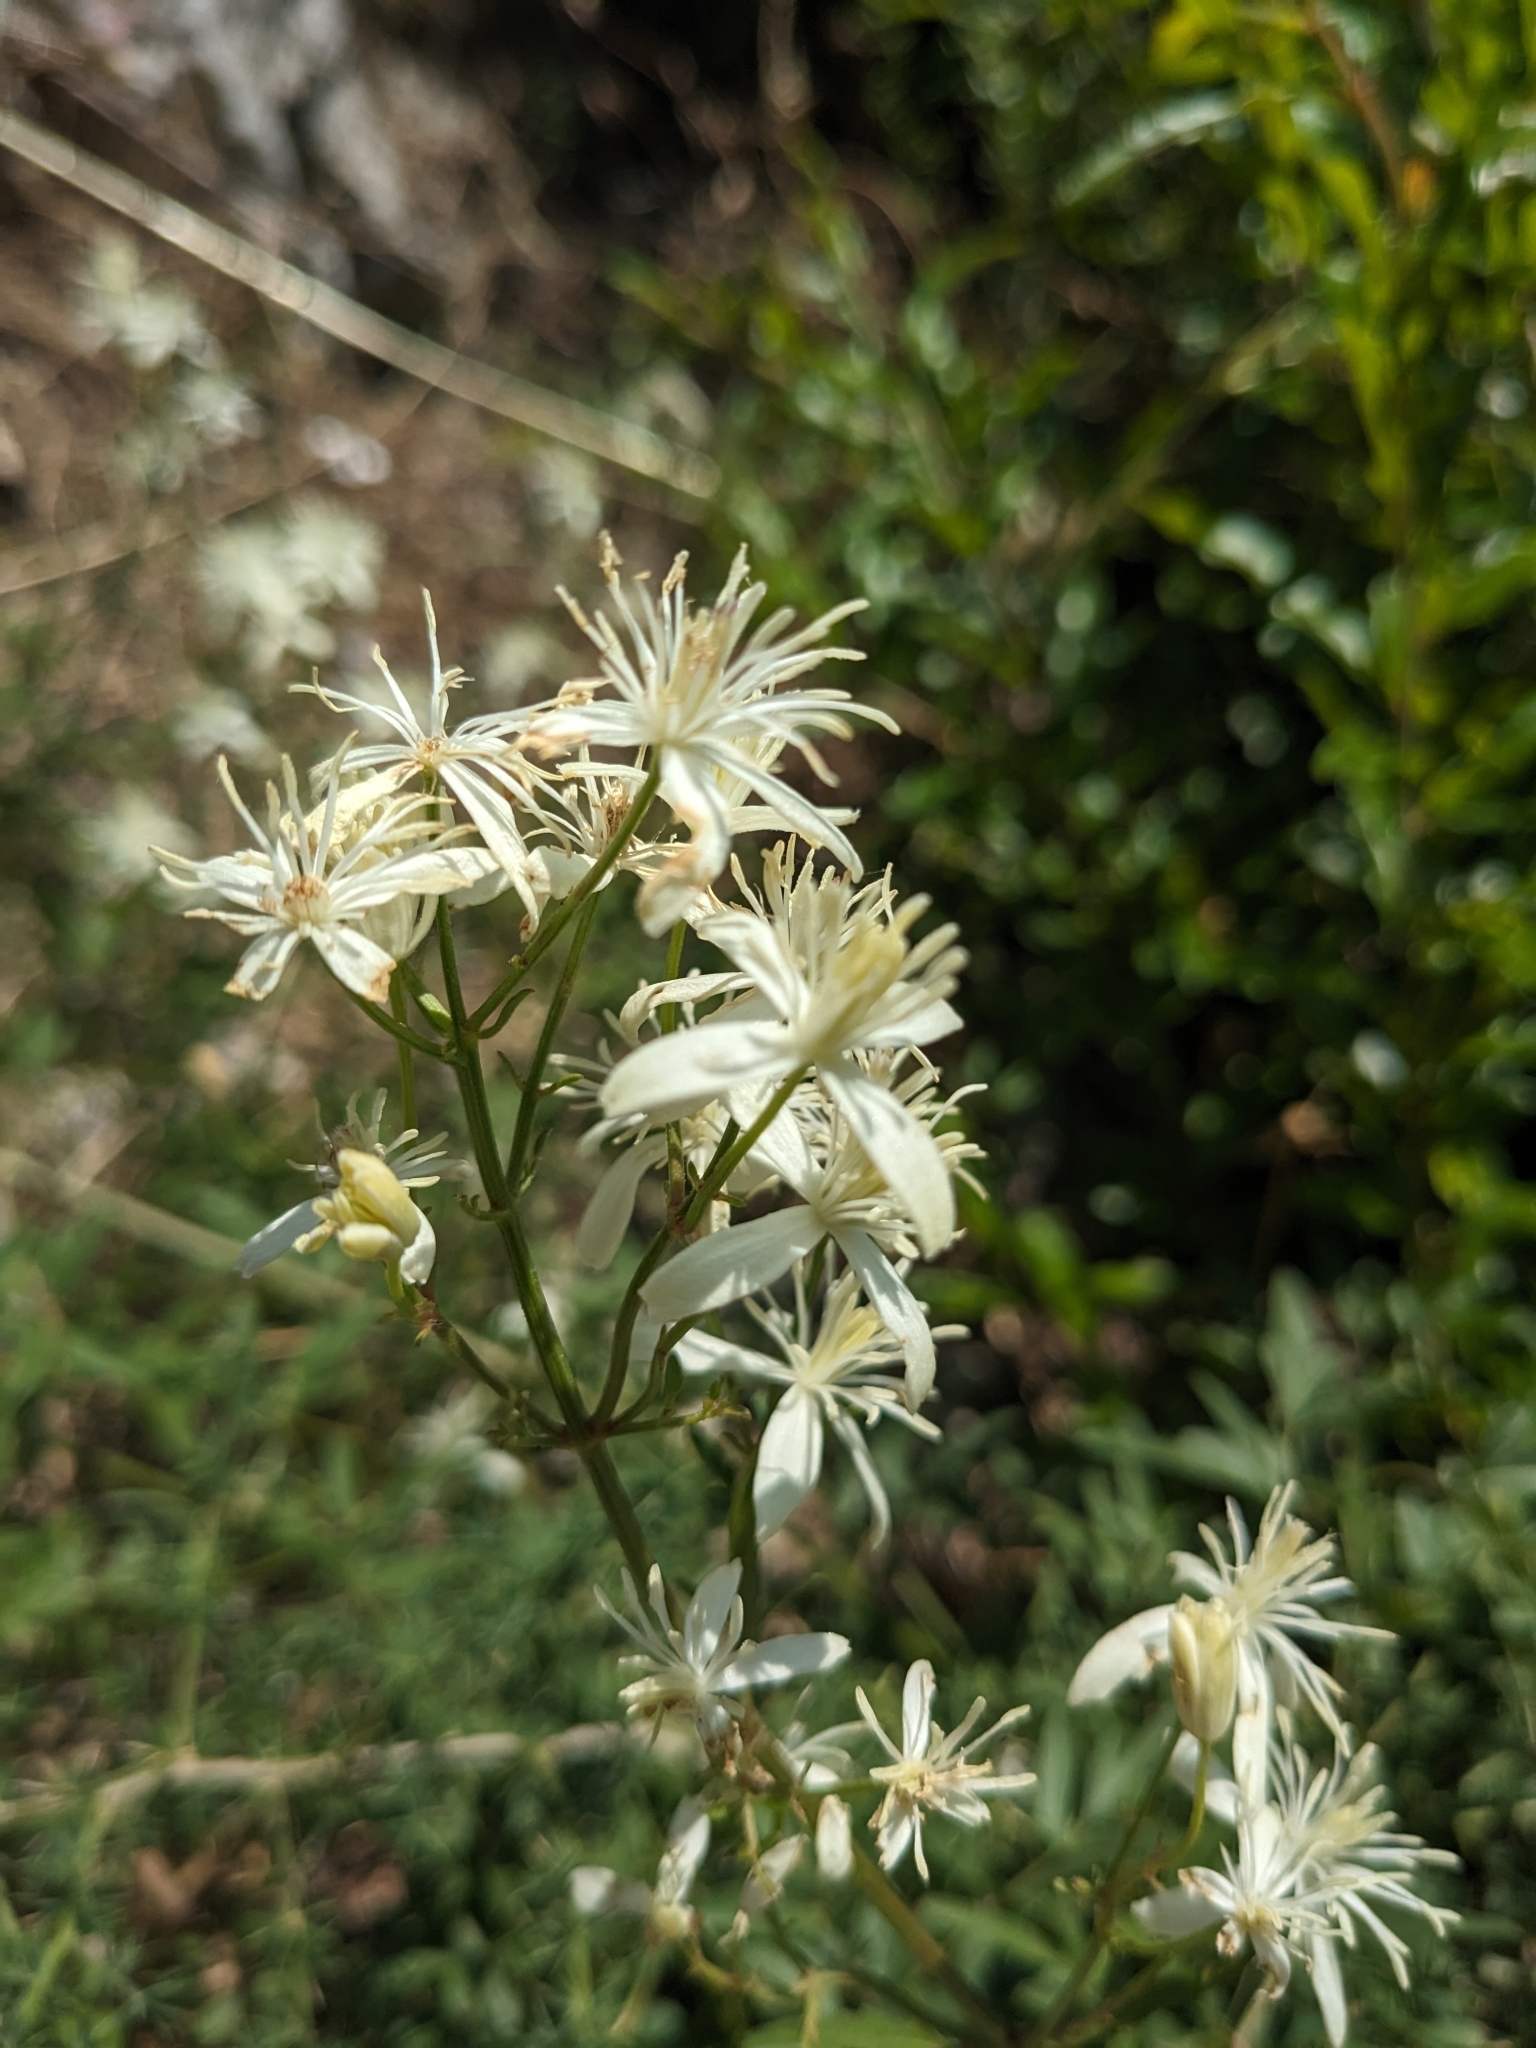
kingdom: Plantae
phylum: Tracheophyta
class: Magnoliopsida
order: Ranunculales
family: Ranunculaceae
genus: Clematis
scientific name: Clematis flammula
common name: Virgin's-bower
